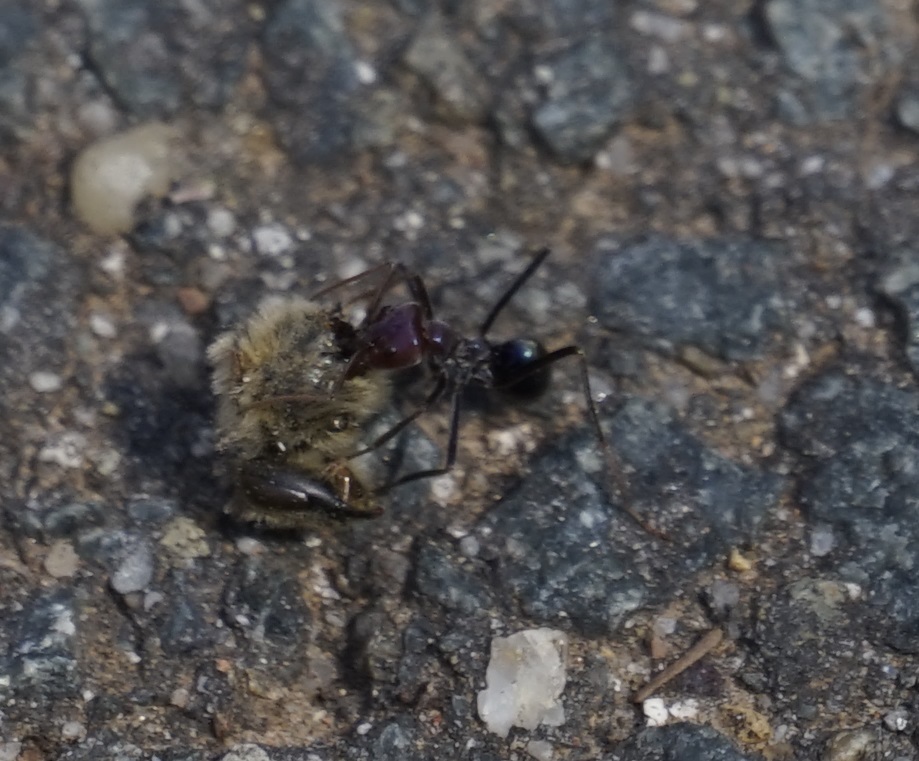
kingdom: Animalia
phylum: Arthropoda
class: Insecta
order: Hymenoptera
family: Formicidae
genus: Iridomyrmex
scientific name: Iridomyrmex purpureus
